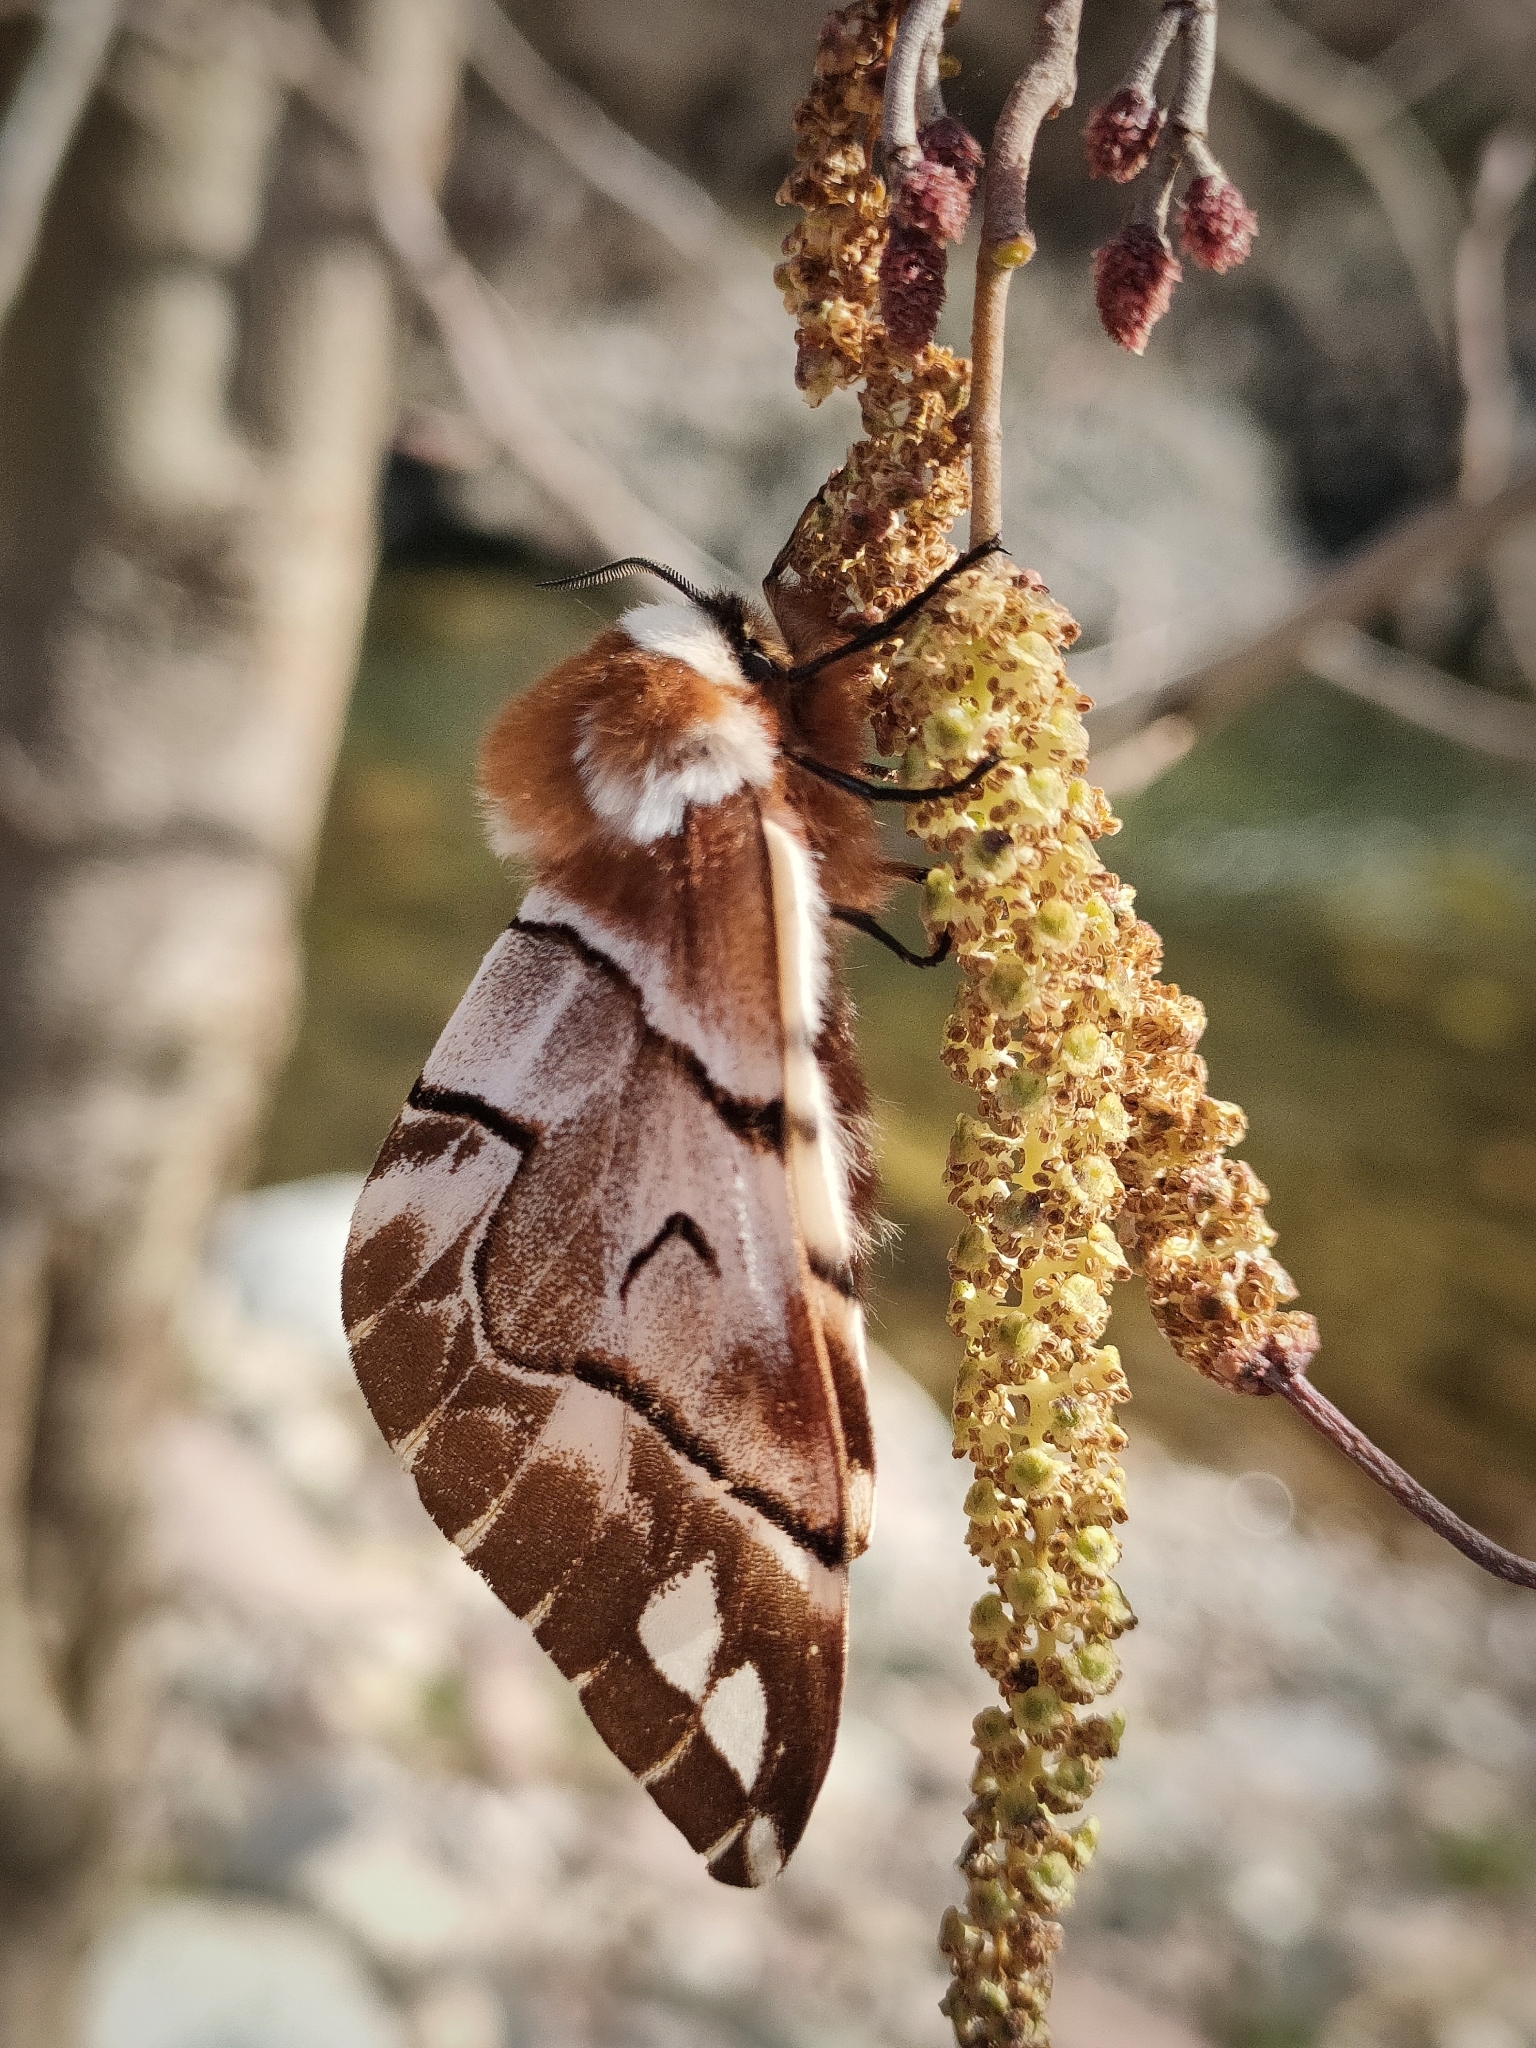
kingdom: Animalia
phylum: Arthropoda
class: Insecta
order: Lepidoptera
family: Endromidae
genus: Endromis
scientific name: Endromis versicolora
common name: Kentish glory
